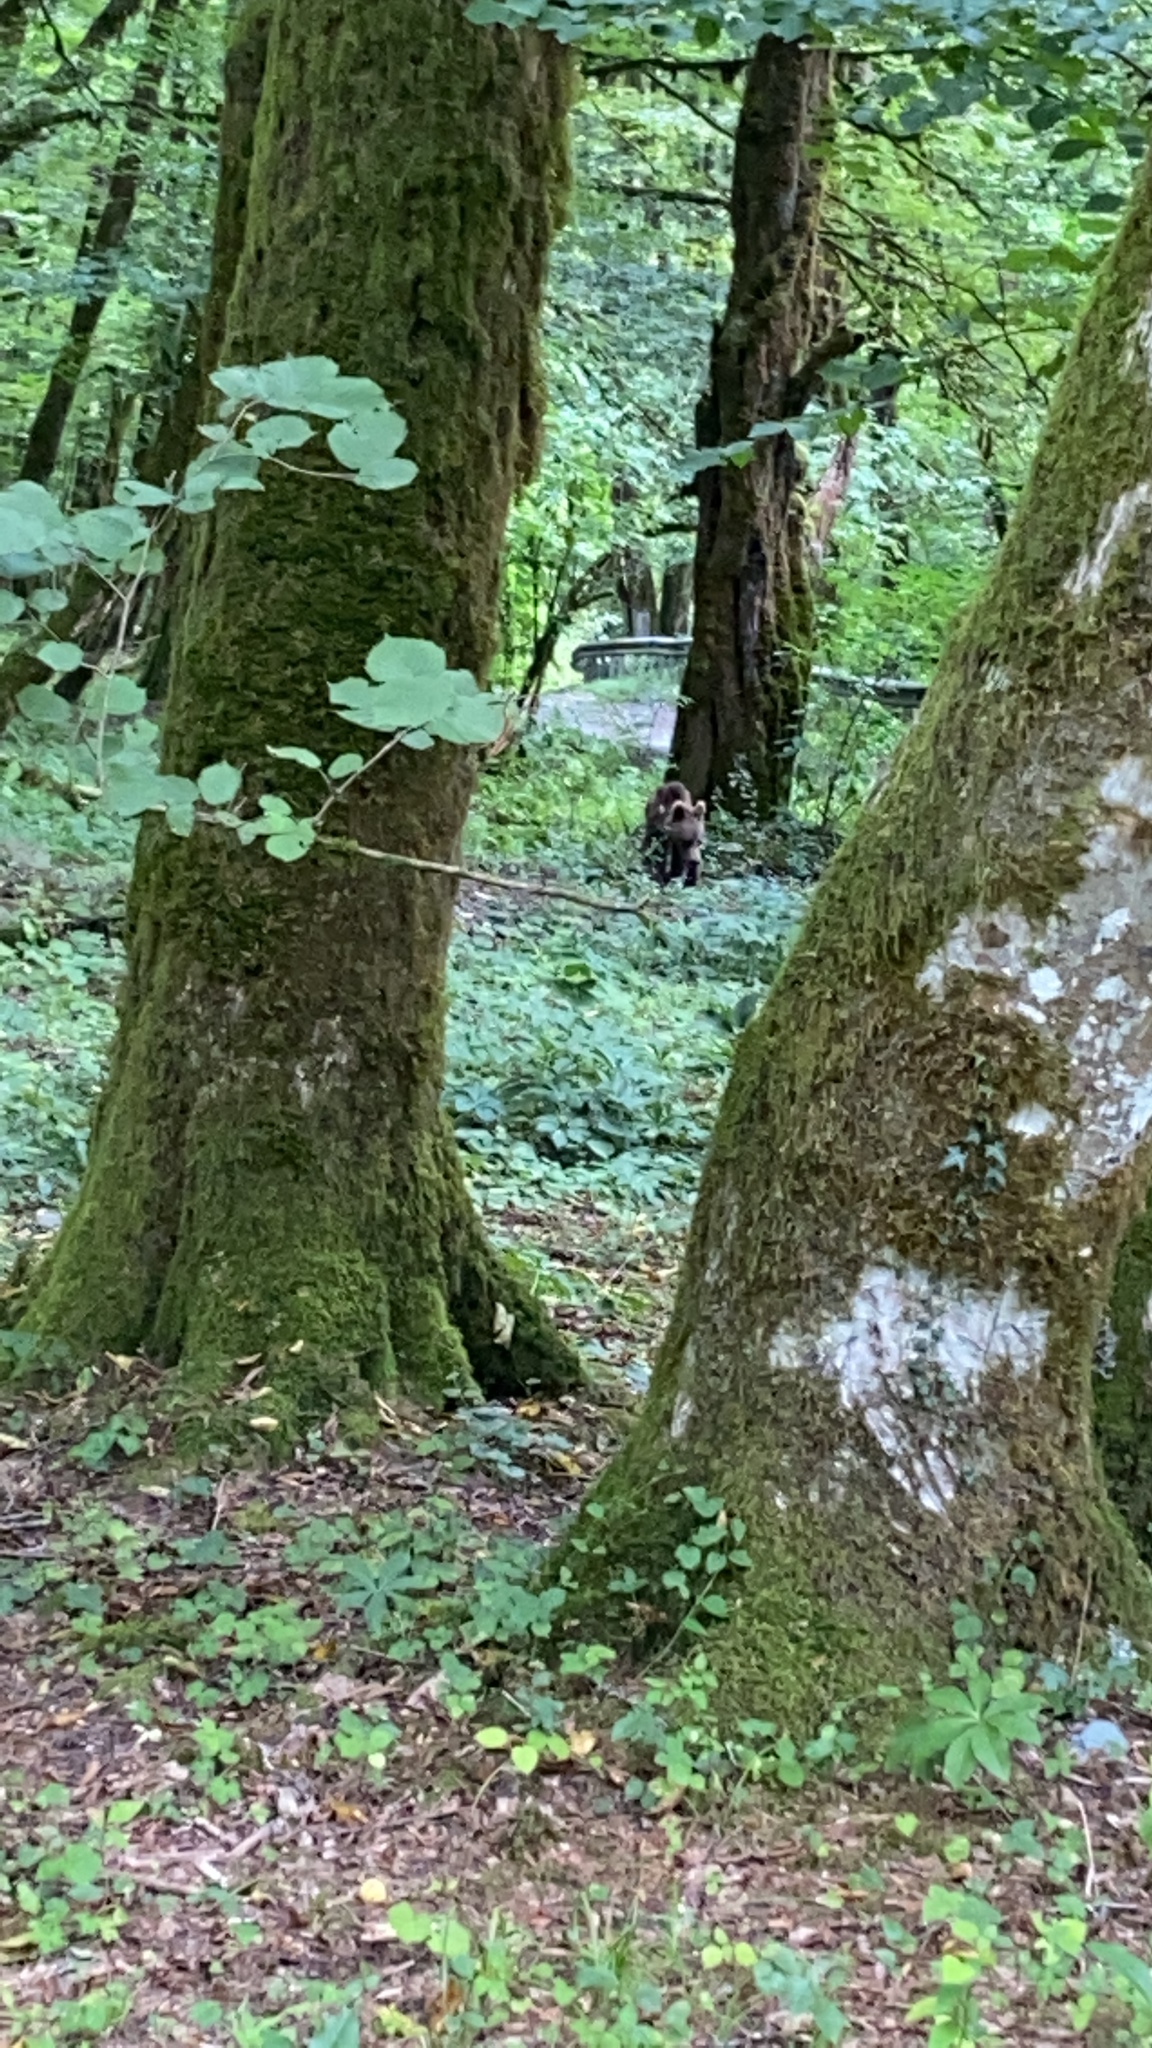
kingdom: Animalia
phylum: Chordata
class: Mammalia
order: Carnivora
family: Ursidae
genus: Ursus
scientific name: Ursus arctos
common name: Brown bear
